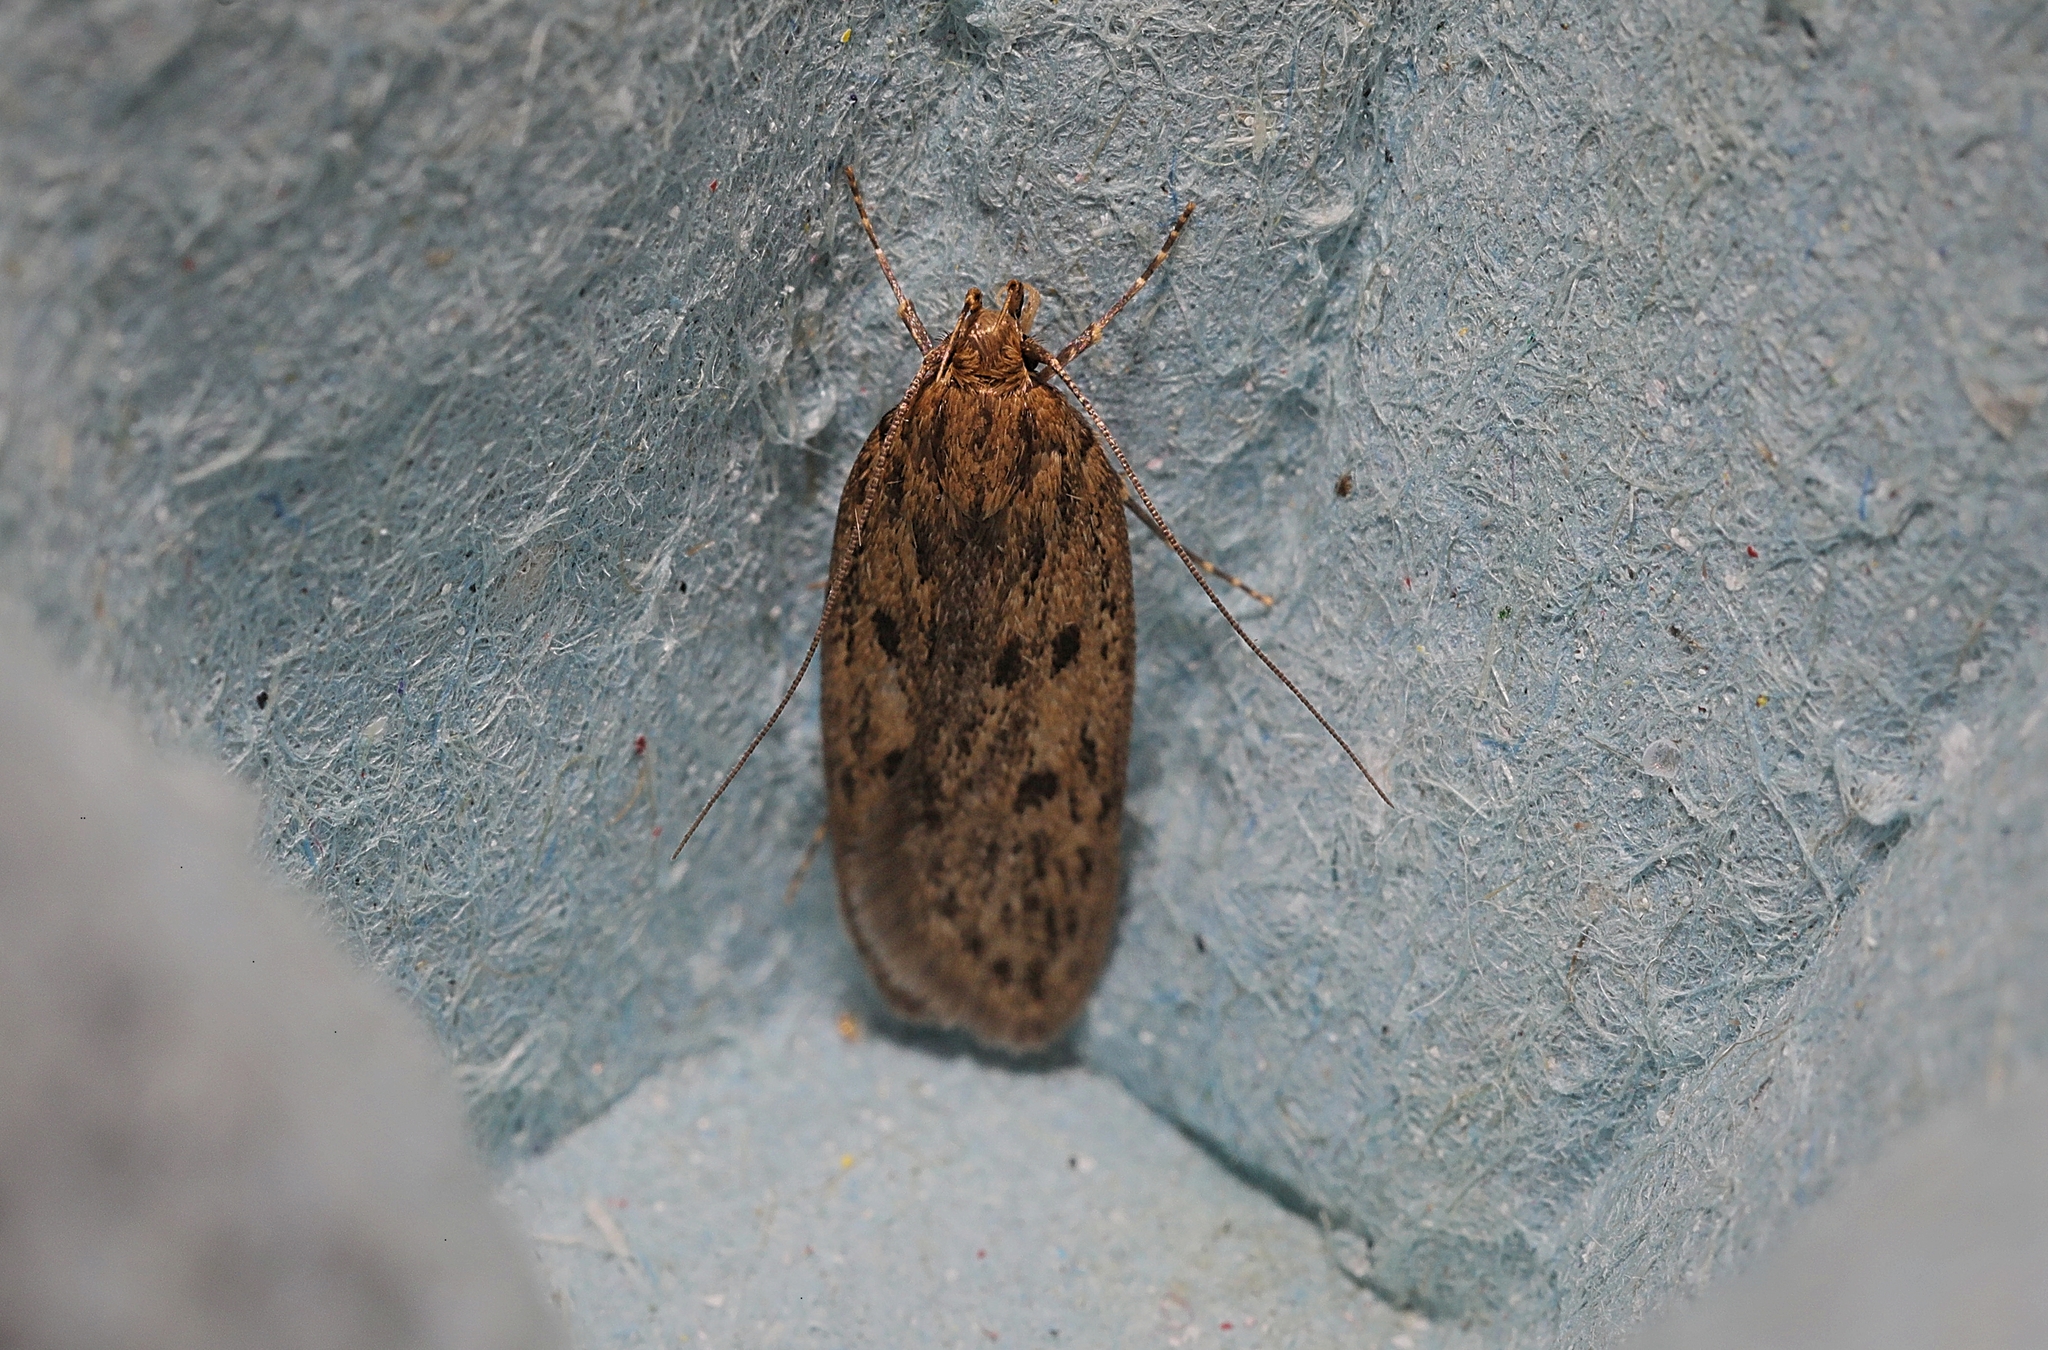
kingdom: Animalia
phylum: Arthropoda
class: Insecta
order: Lepidoptera
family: Oecophoridae
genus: Hofmannophila
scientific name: Hofmannophila pseudospretella
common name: Brown house moth
